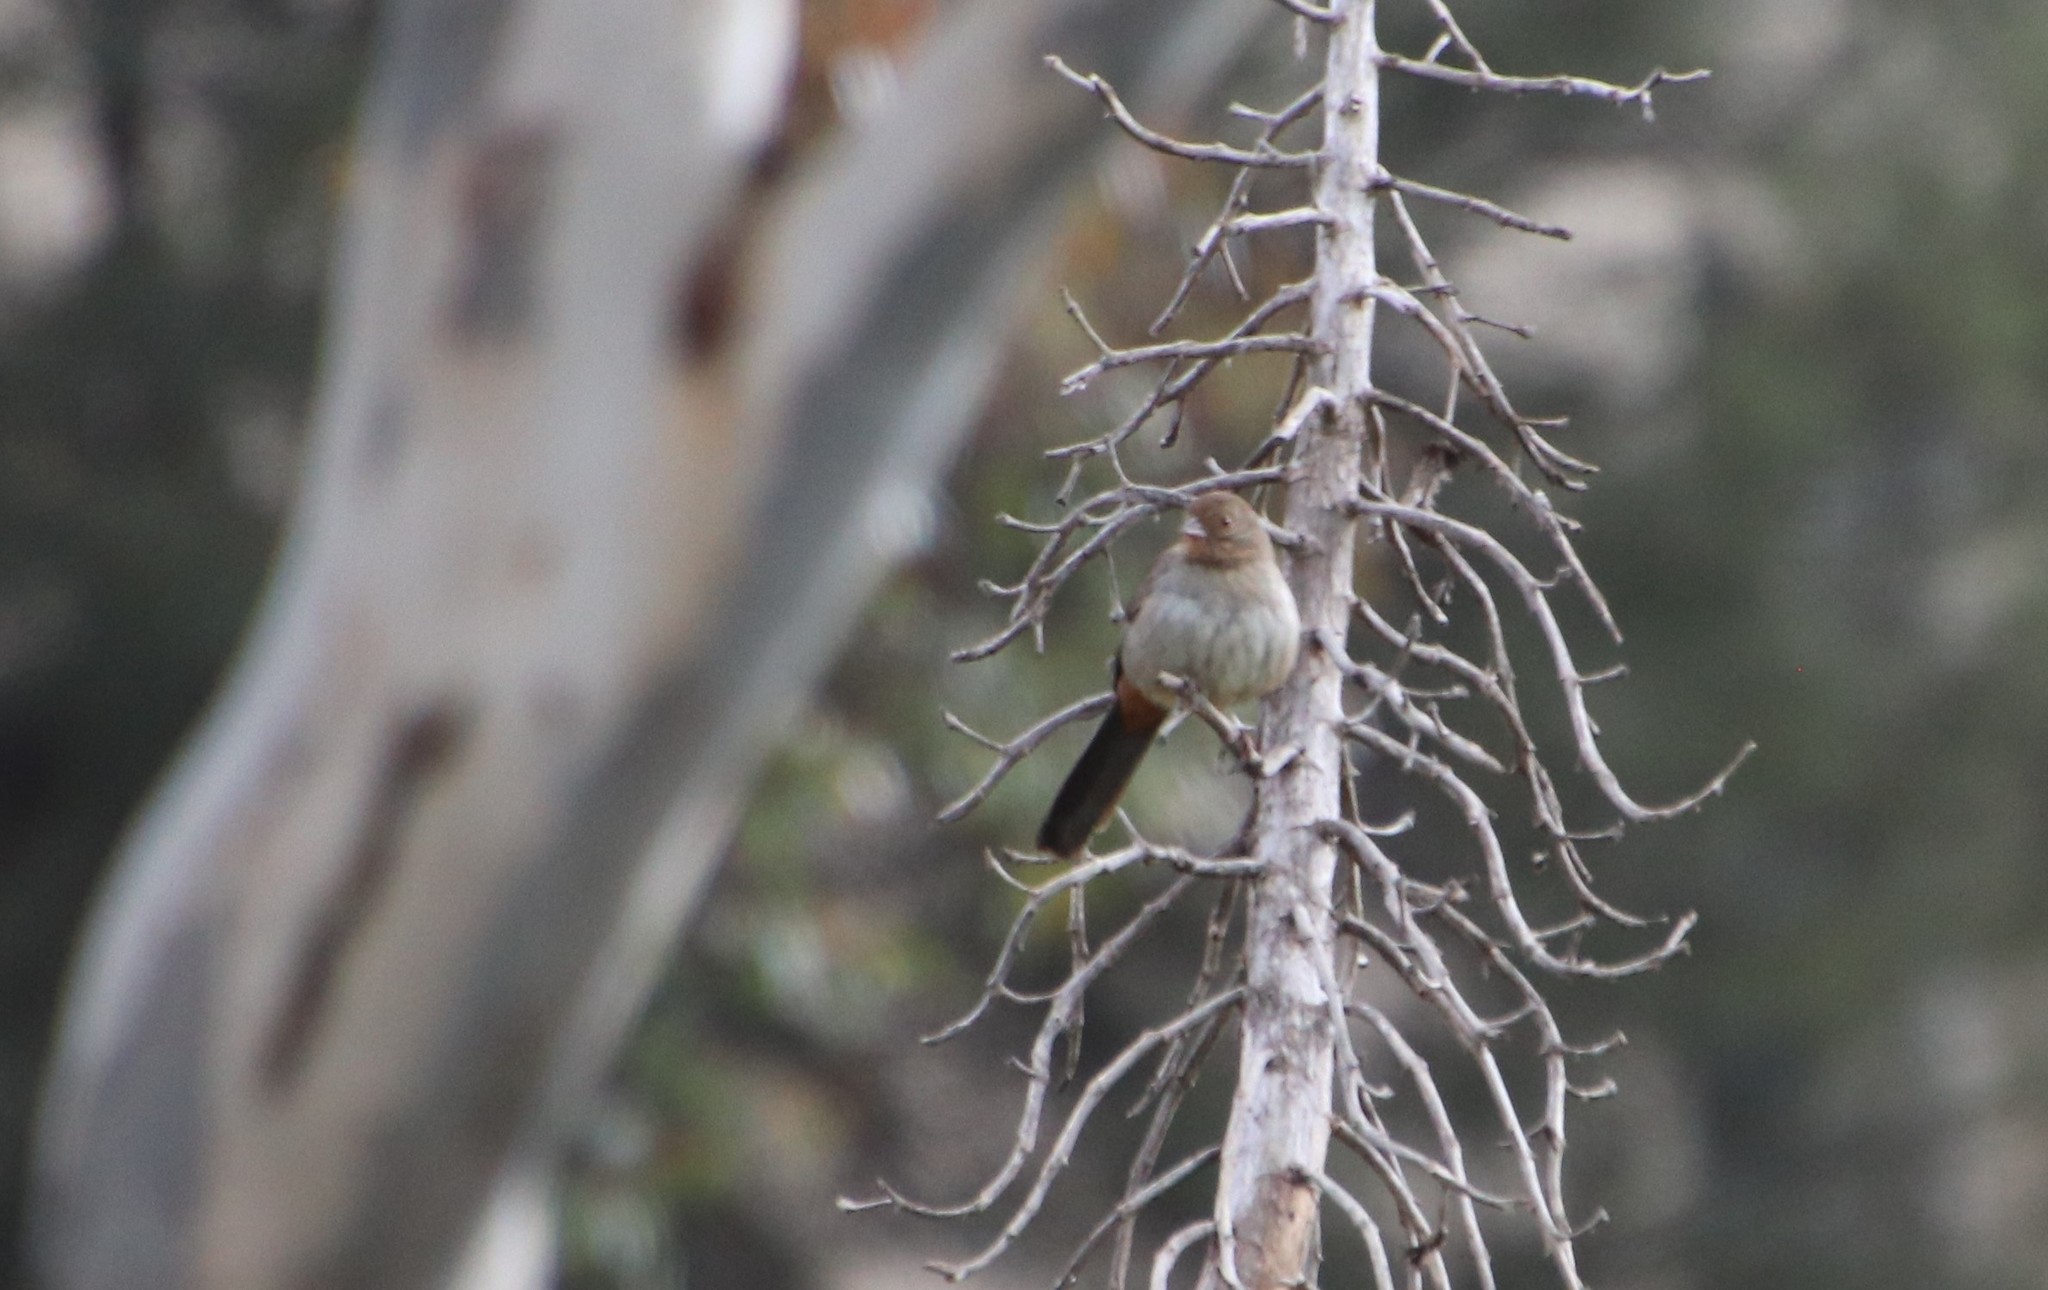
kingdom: Animalia
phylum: Chordata
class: Aves
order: Passeriformes
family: Passerellidae
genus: Melozone
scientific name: Melozone crissalis
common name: California towhee
